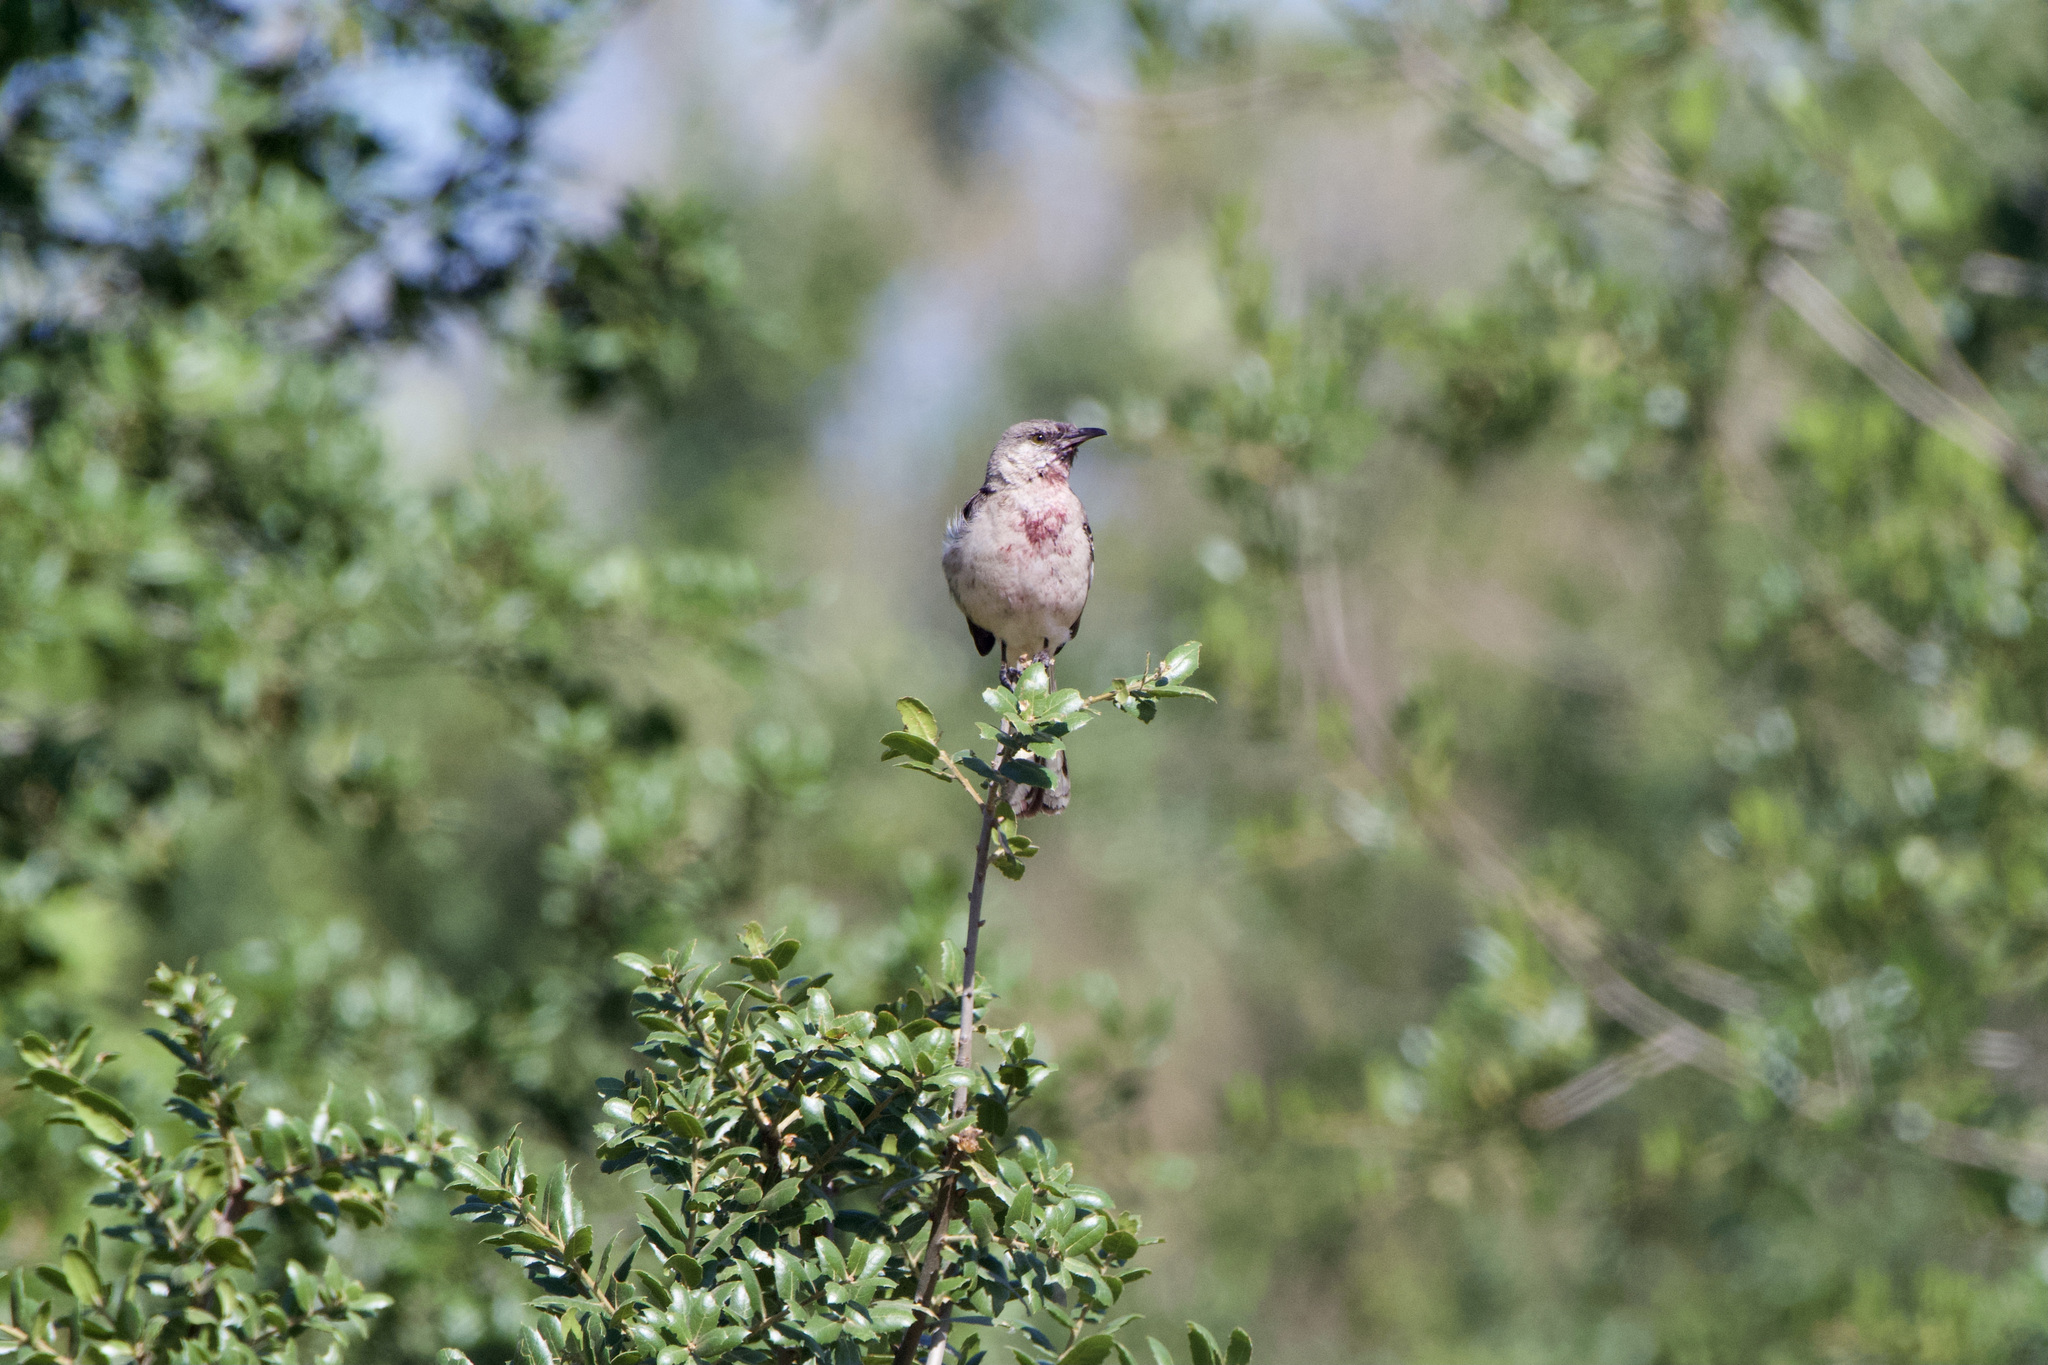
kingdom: Animalia
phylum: Chordata
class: Aves
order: Passeriformes
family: Mimidae
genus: Mimus
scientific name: Mimus polyglottos
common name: Northern mockingbird
